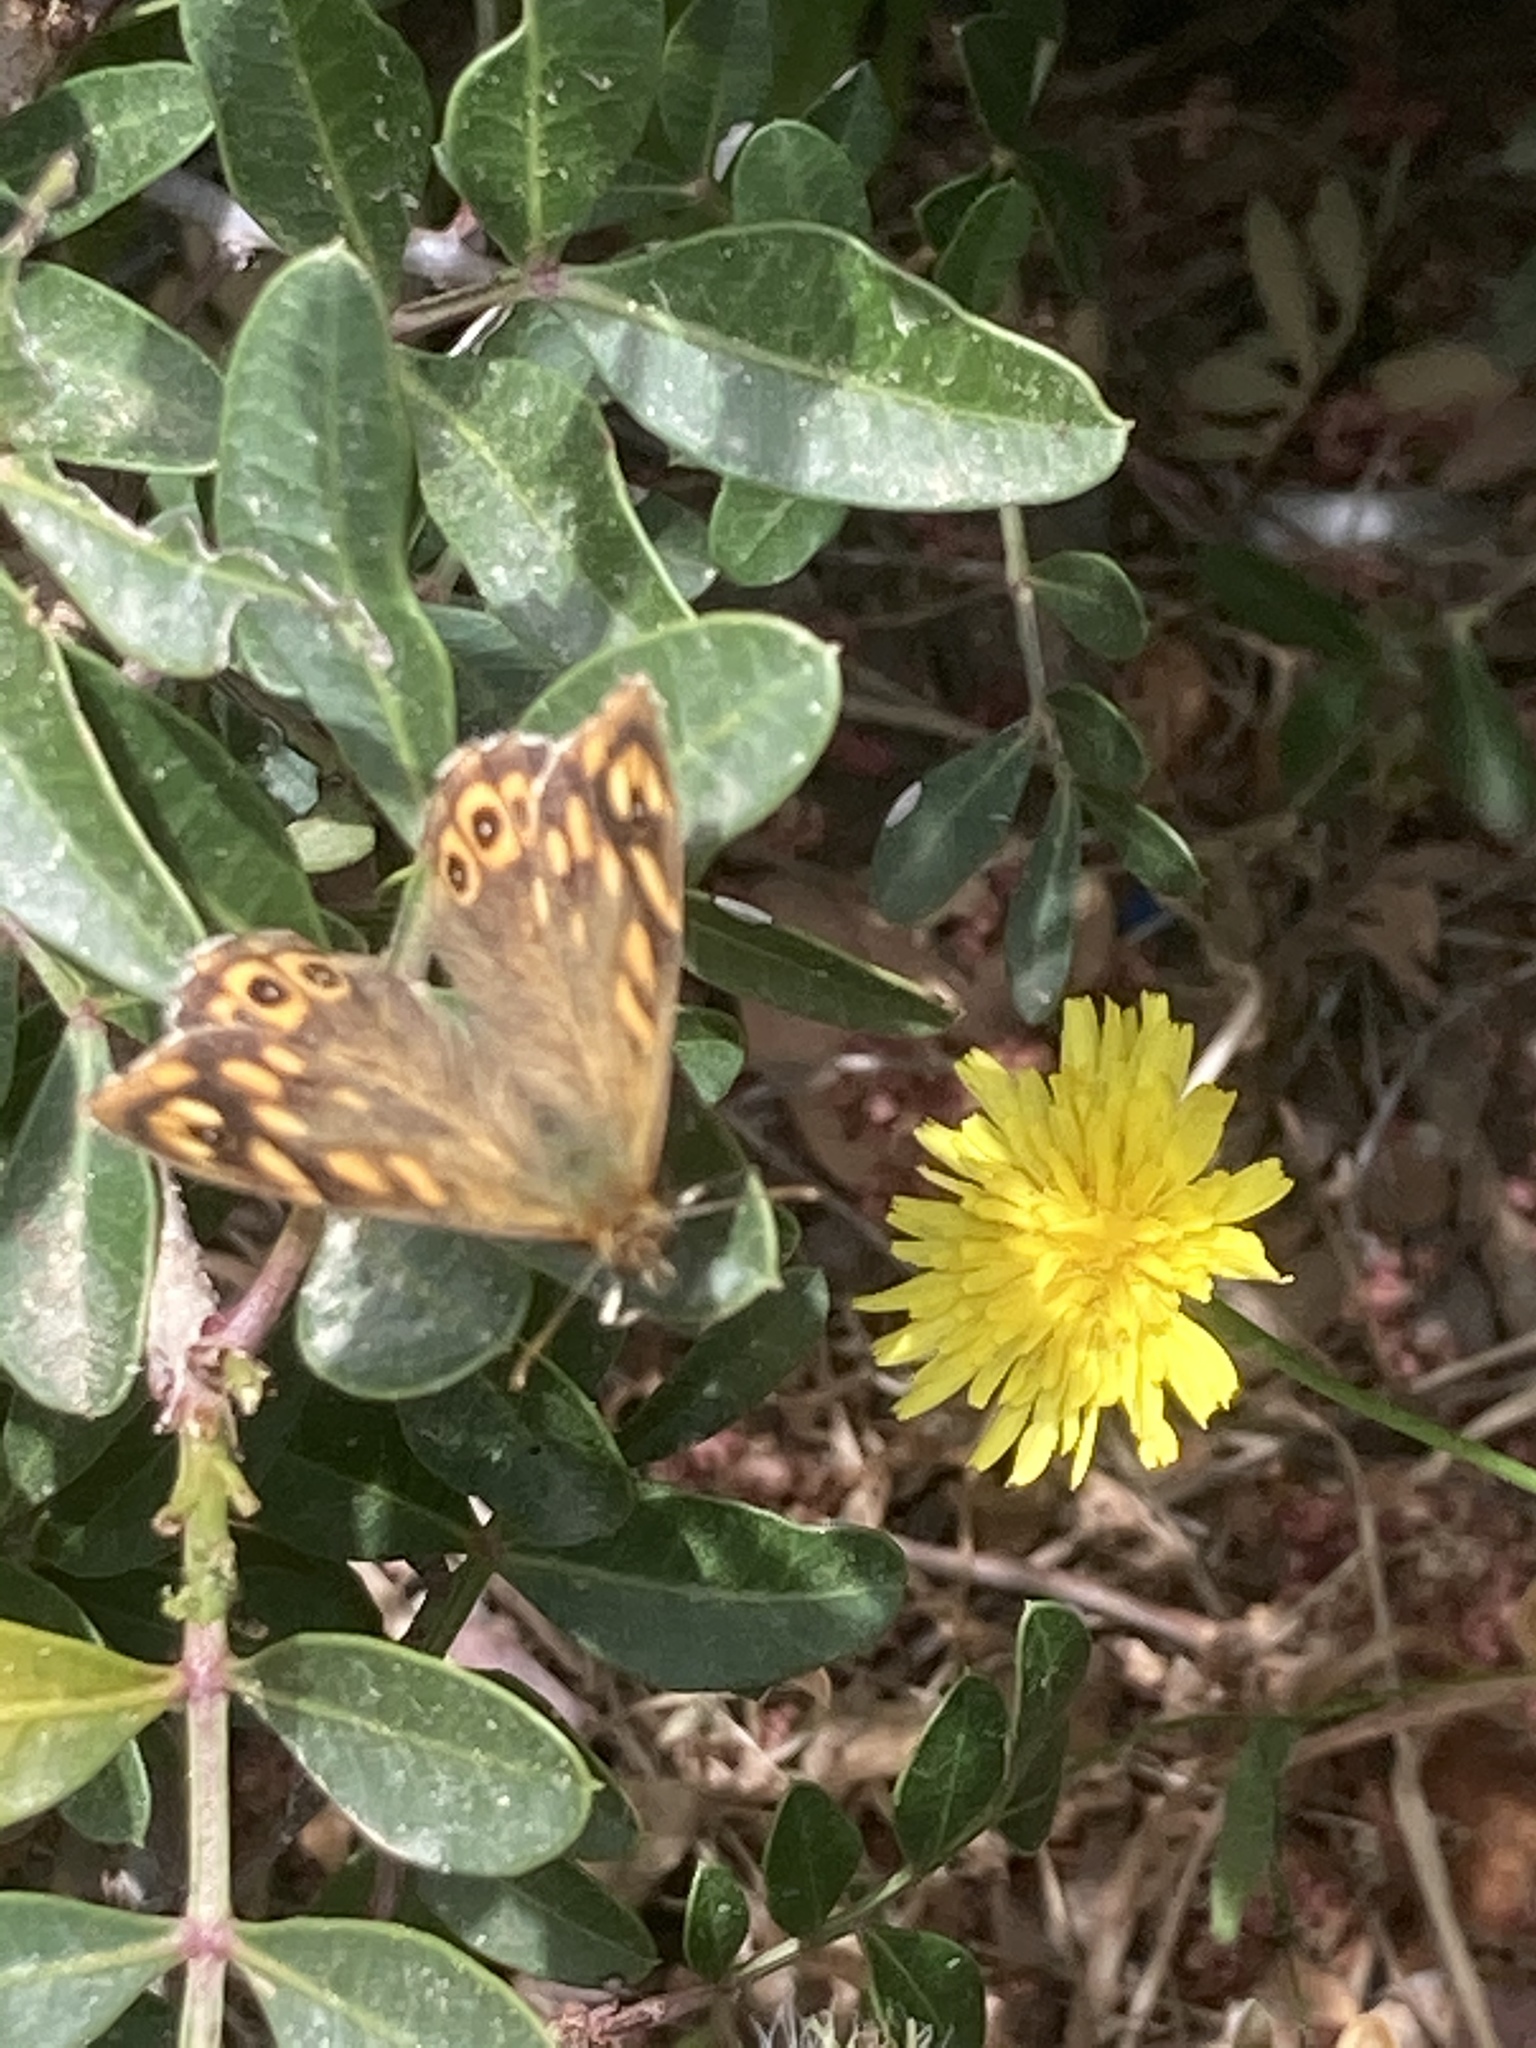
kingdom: Animalia
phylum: Arthropoda
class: Insecta
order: Lepidoptera
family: Nymphalidae
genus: Pararge
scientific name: Pararge aegeria
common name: Speckled wood
